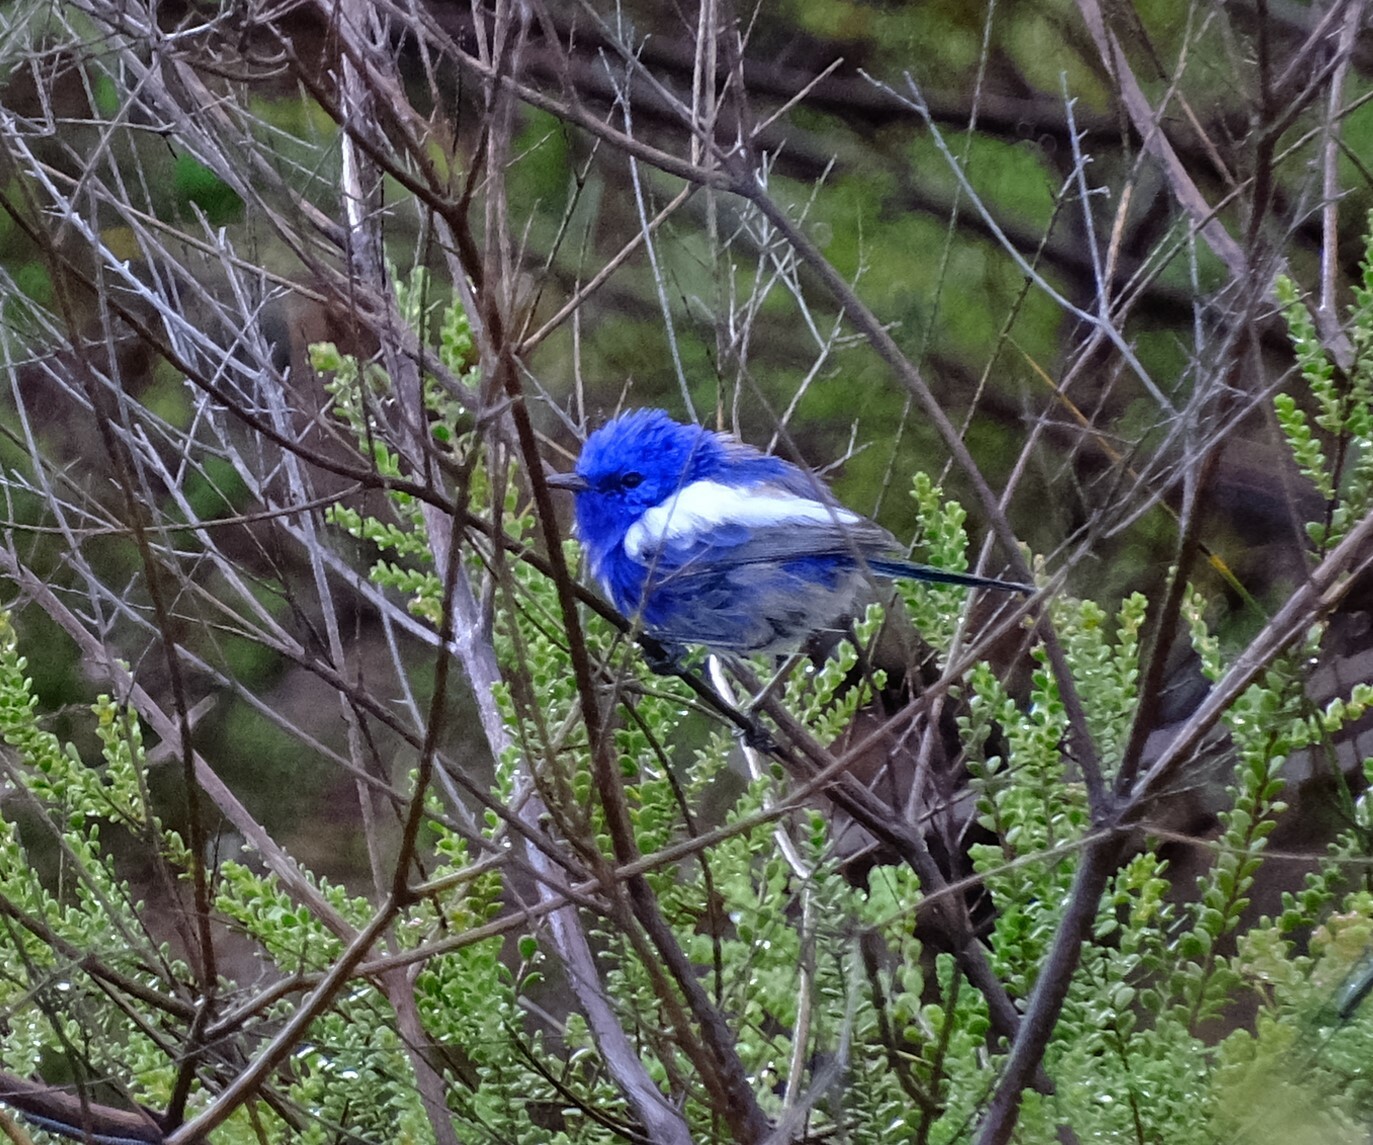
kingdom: Animalia
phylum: Chordata
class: Aves
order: Passeriformes
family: Maluridae
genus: Malurus
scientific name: Malurus leucopterus
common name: White-winged fairywren
